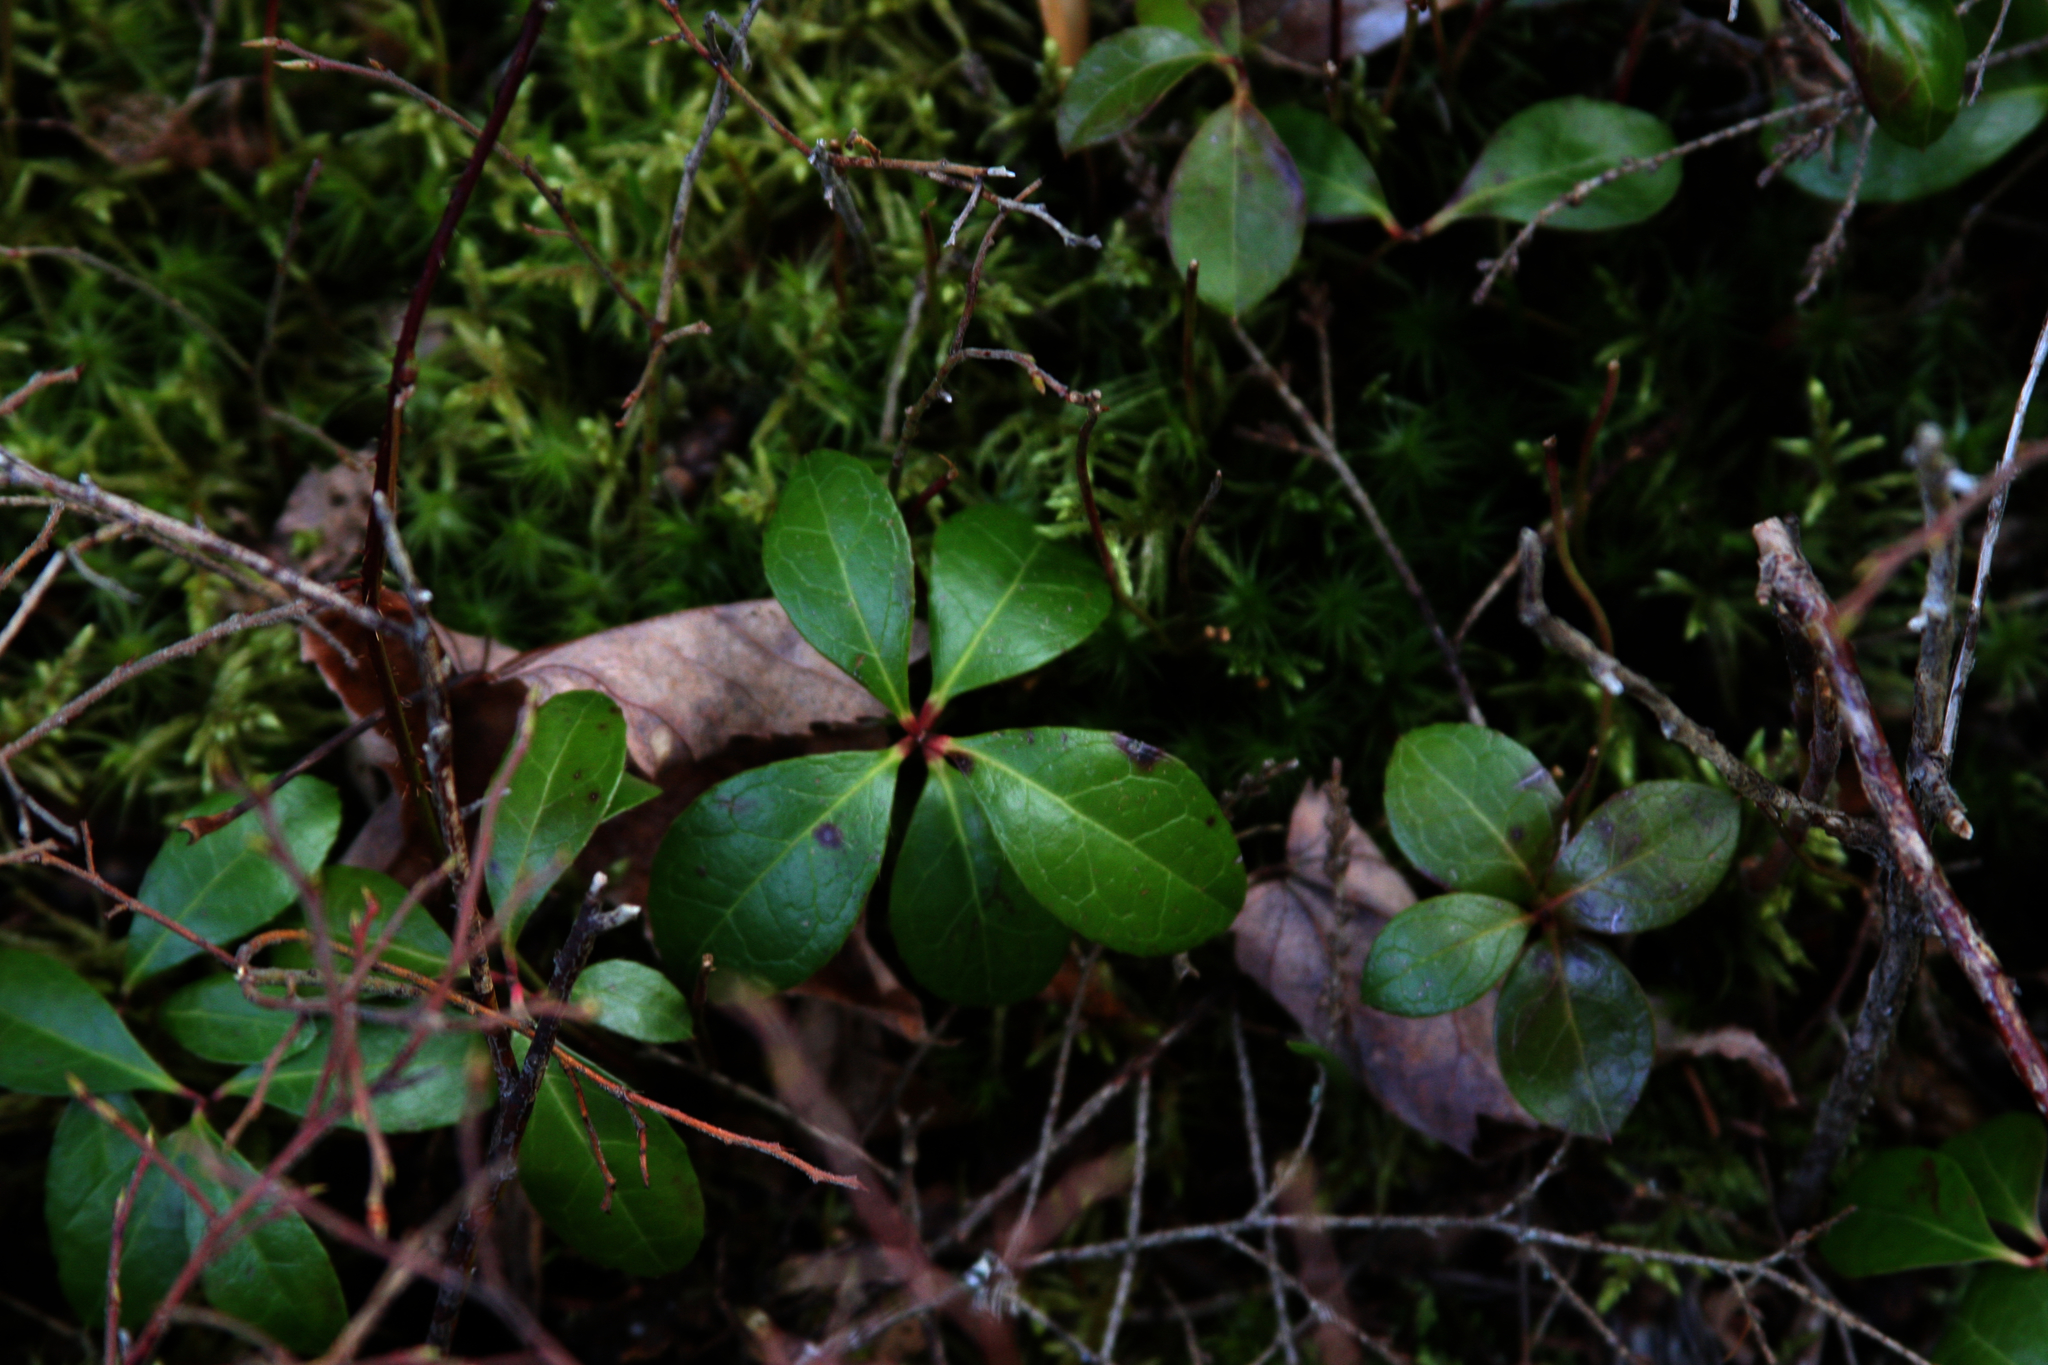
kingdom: Plantae
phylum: Tracheophyta
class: Magnoliopsida
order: Ericales
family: Ericaceae
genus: Gaultheria
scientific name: Gaultheria procumbens
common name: Checkerberry
